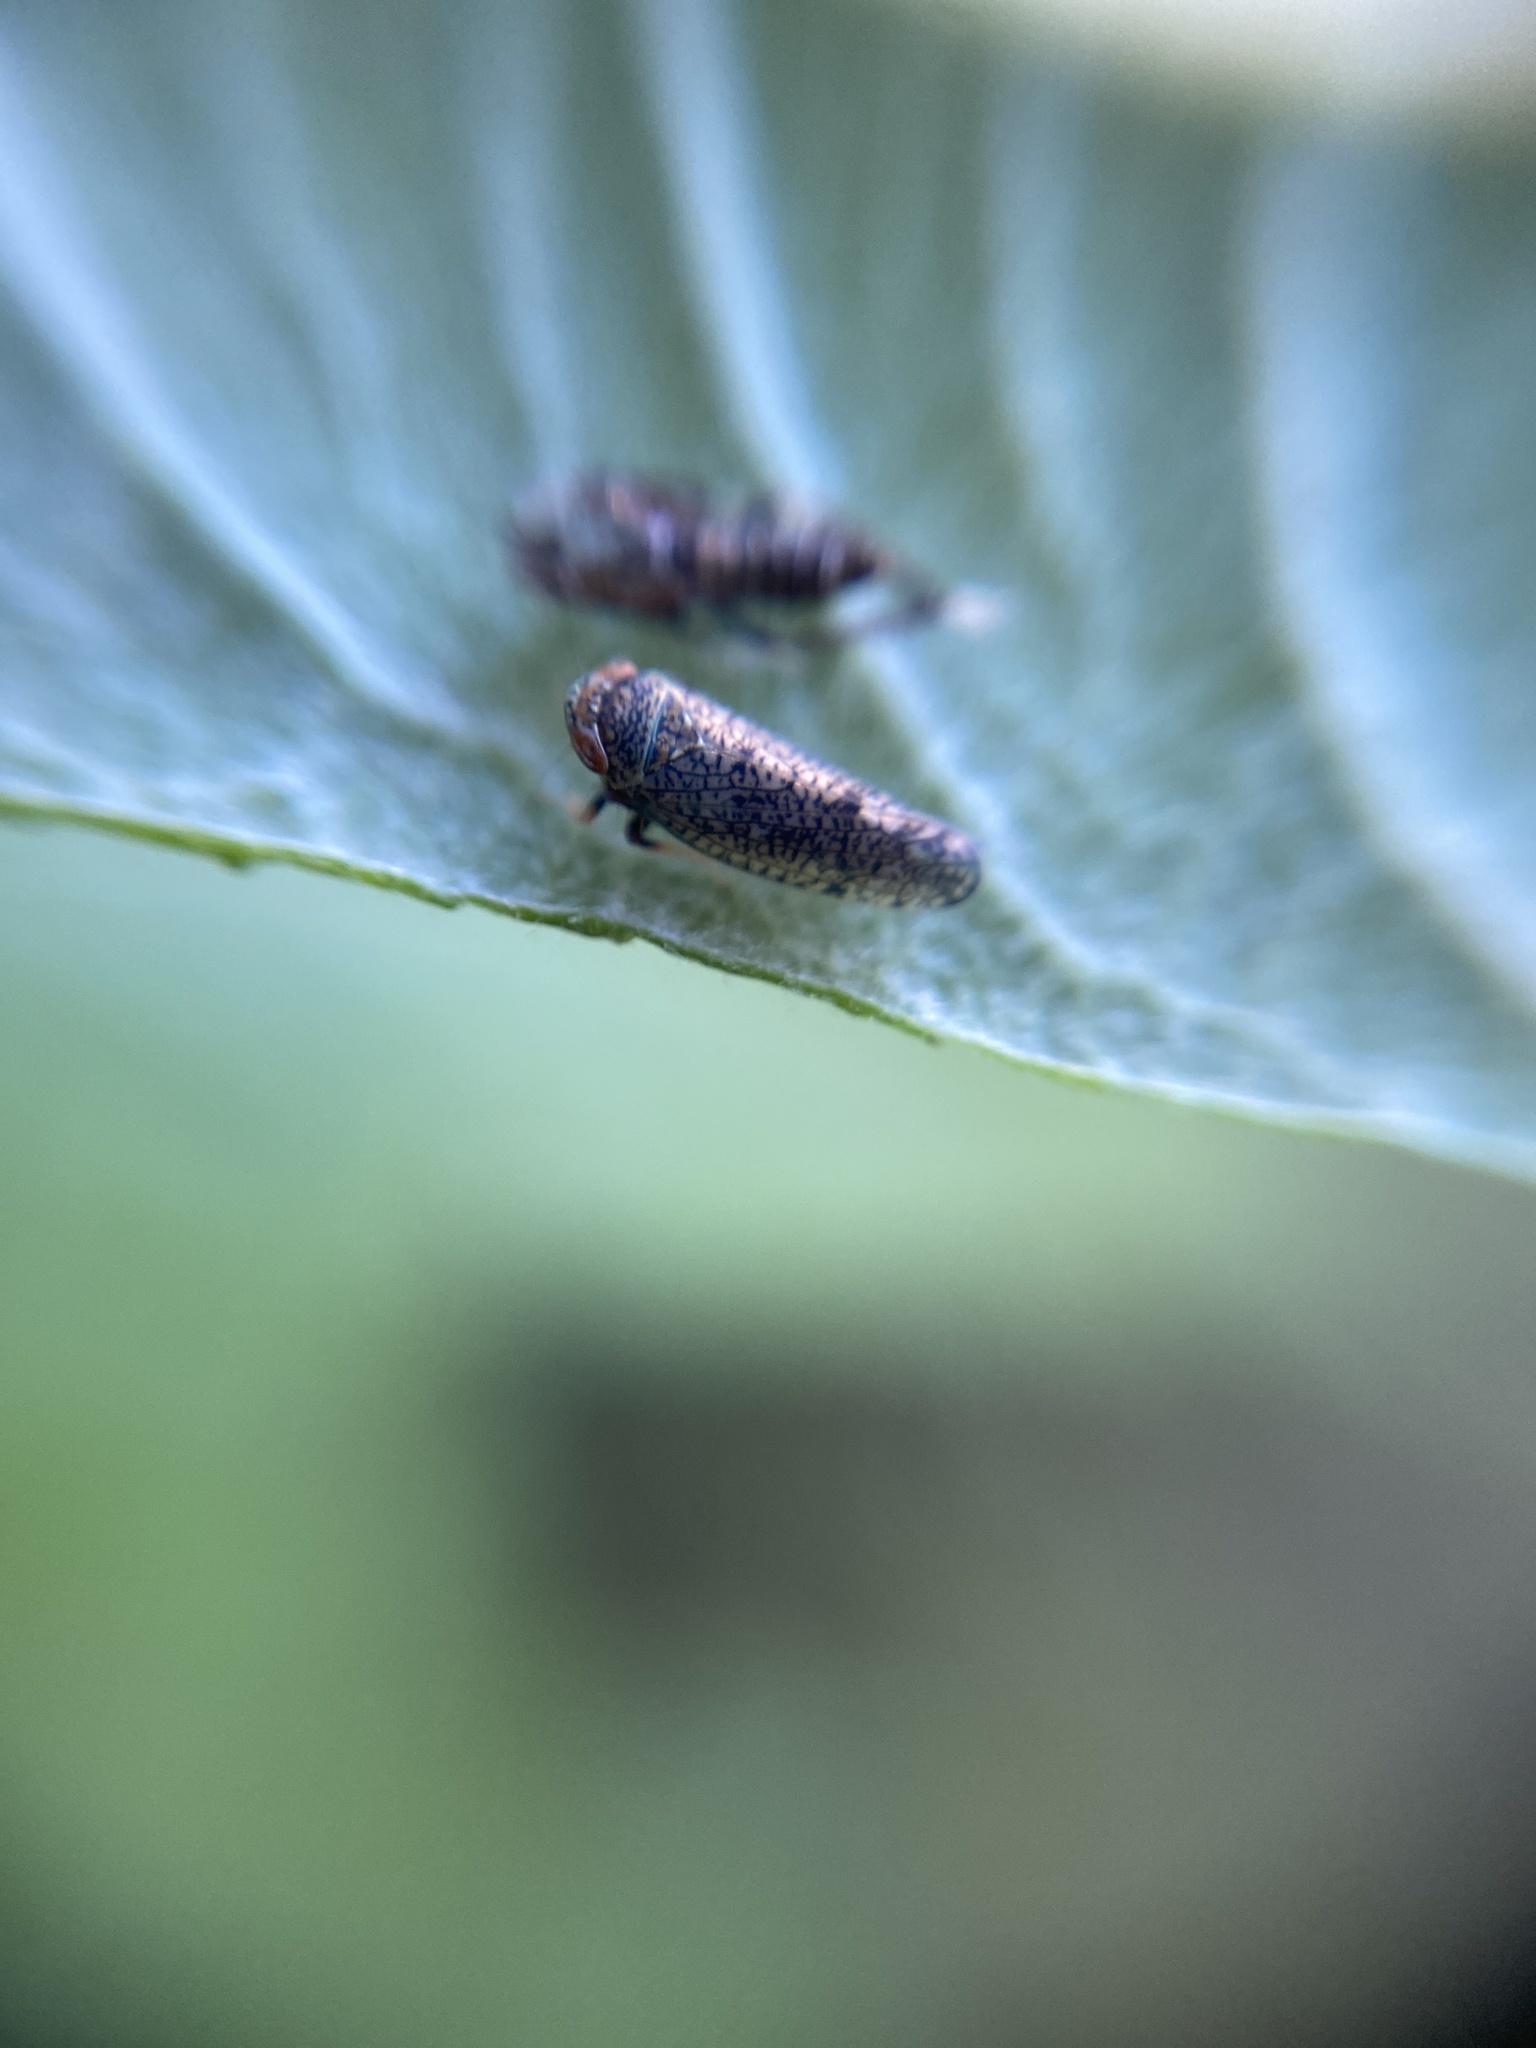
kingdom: Animalia
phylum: Arthropoda
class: Insecta
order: Hemiptera
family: Cicadellidae
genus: Orientus
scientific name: Orientus ishidae
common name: Japanese leafhopper
